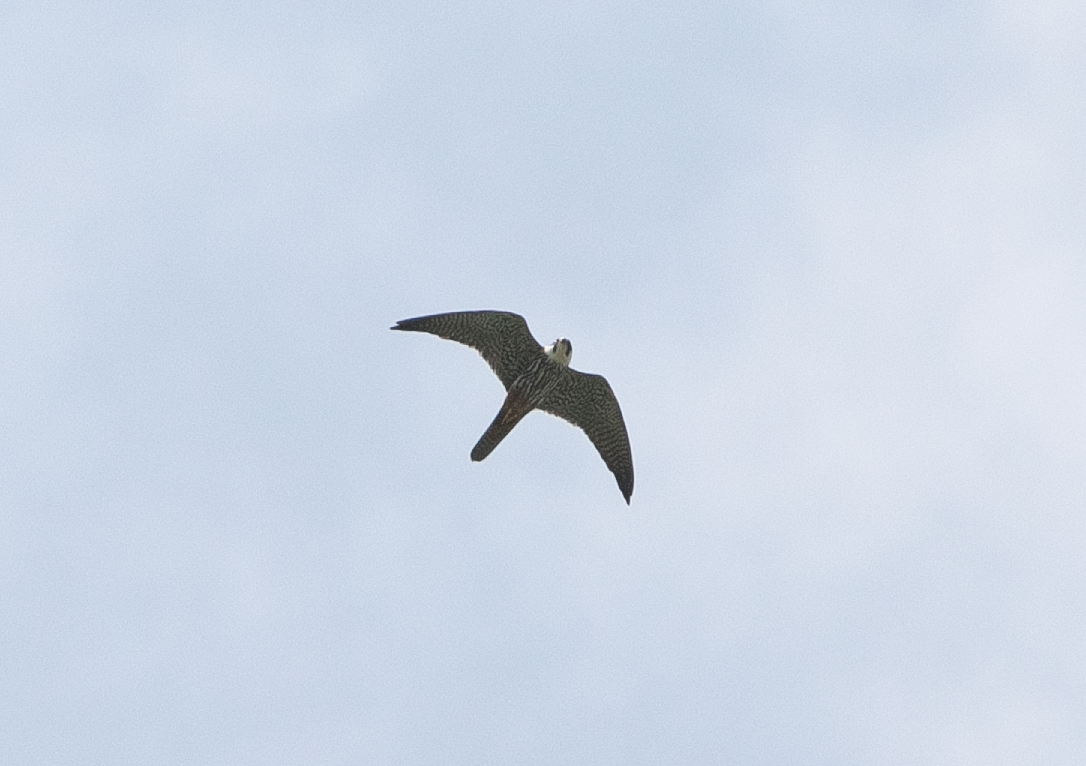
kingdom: Animalia
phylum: Chordata
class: Aves
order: Falconiformes
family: Falconidae
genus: Falco
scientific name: Falco subbuteo
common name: Eurasian hobby
